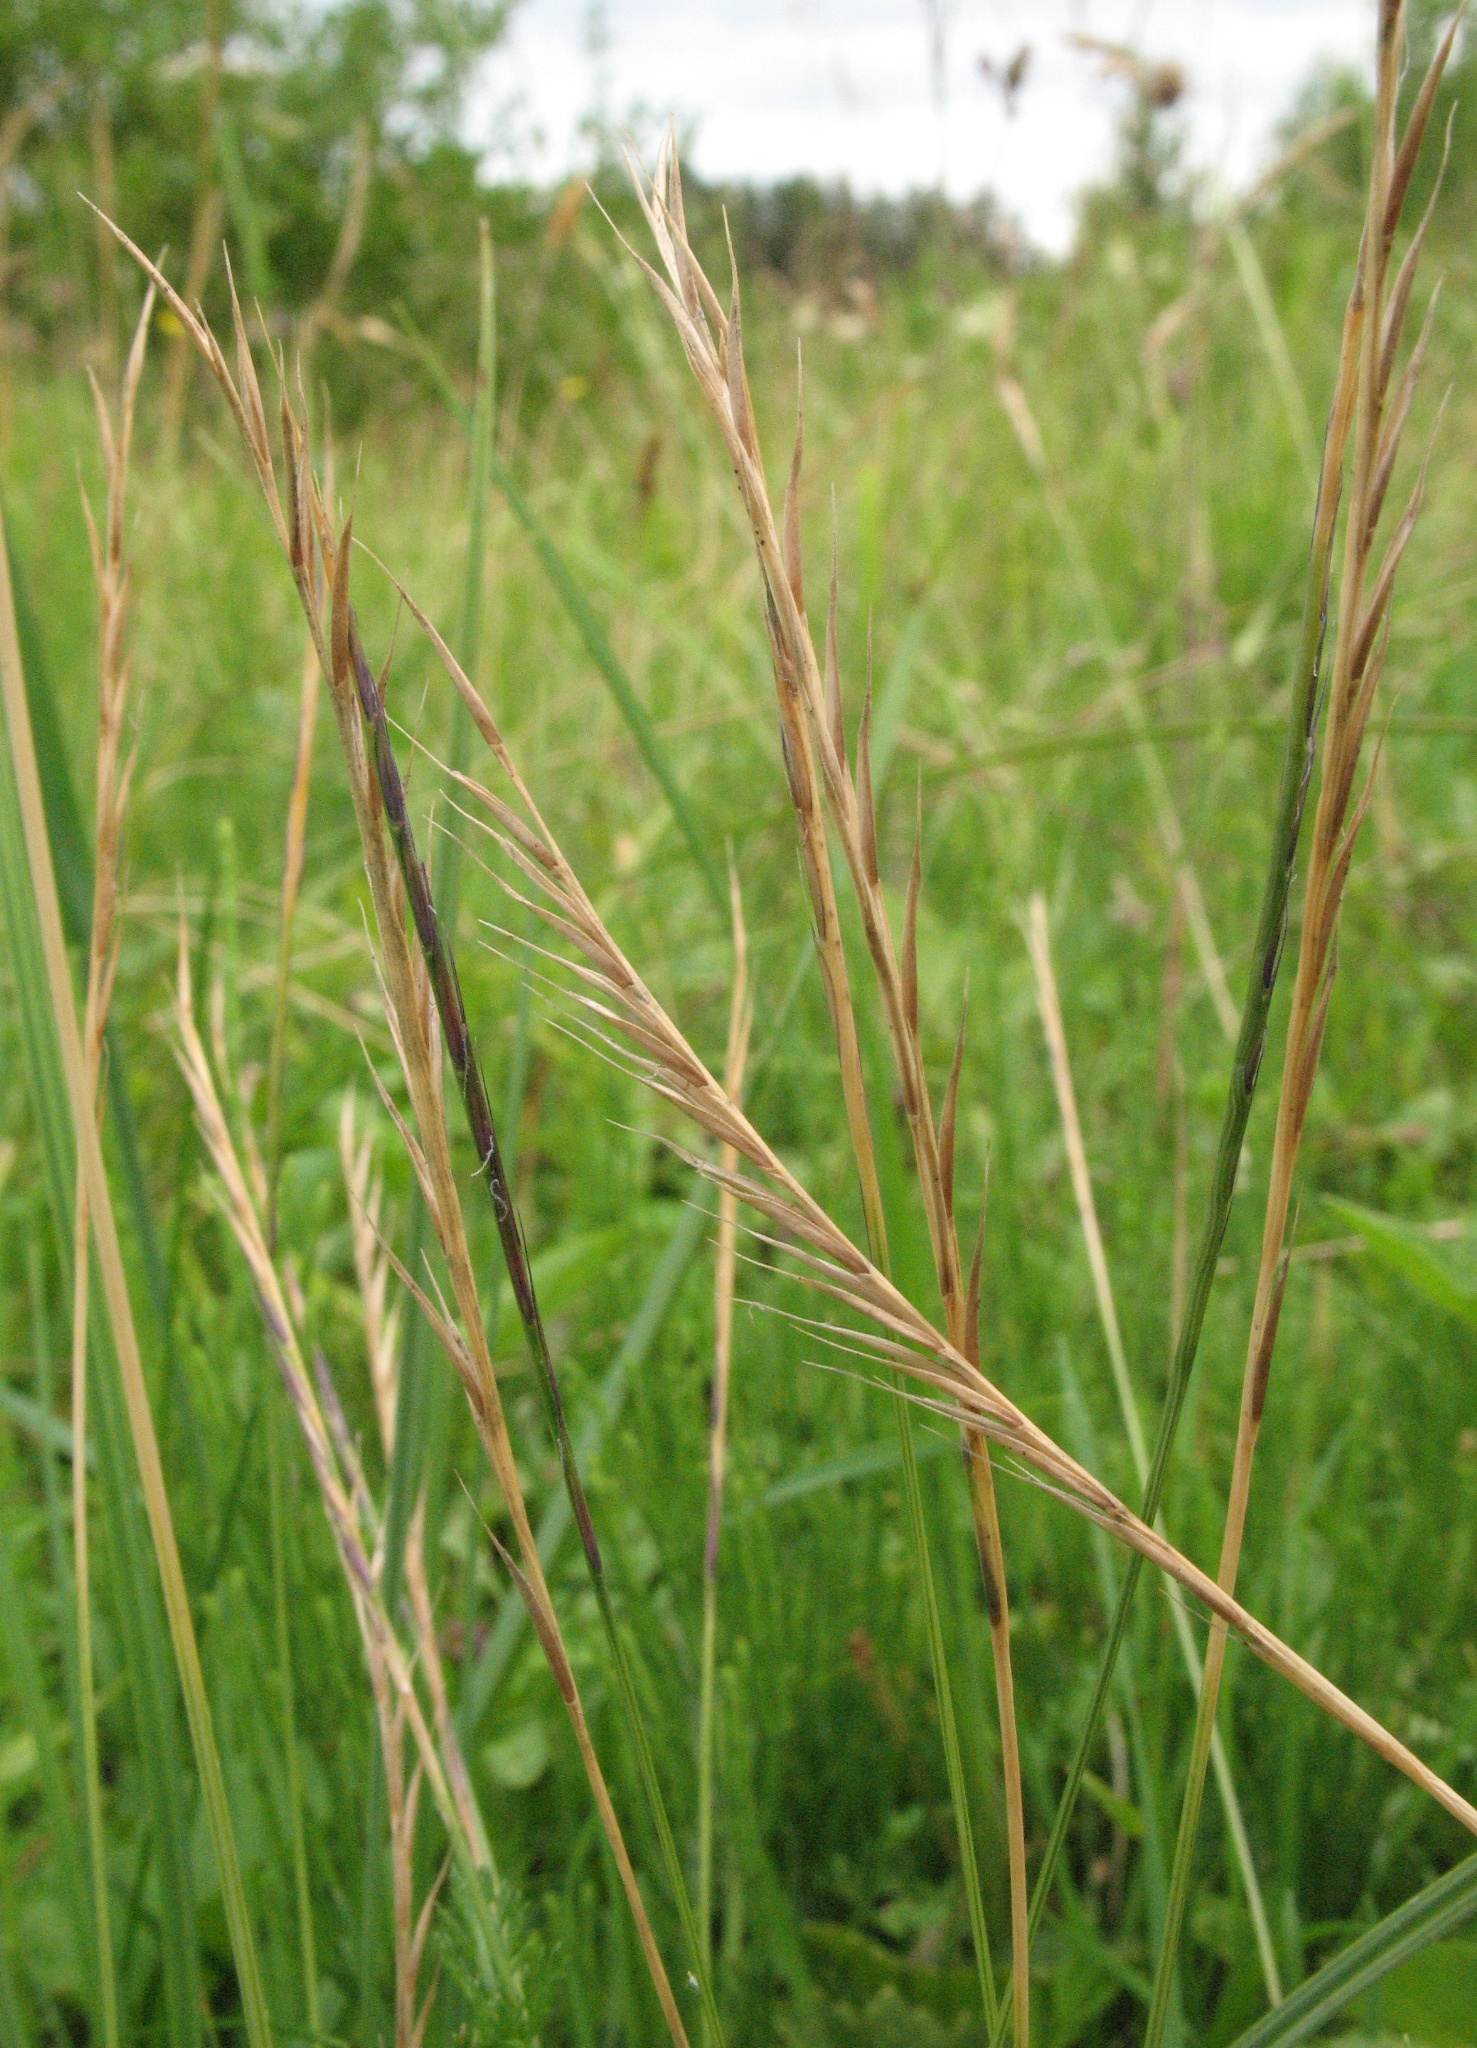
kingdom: Plantae
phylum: Tracheophyta
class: Liliopsida
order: Poales
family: Poaceae
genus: Nardus
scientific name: Nardus stricta
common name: Mat-grass
